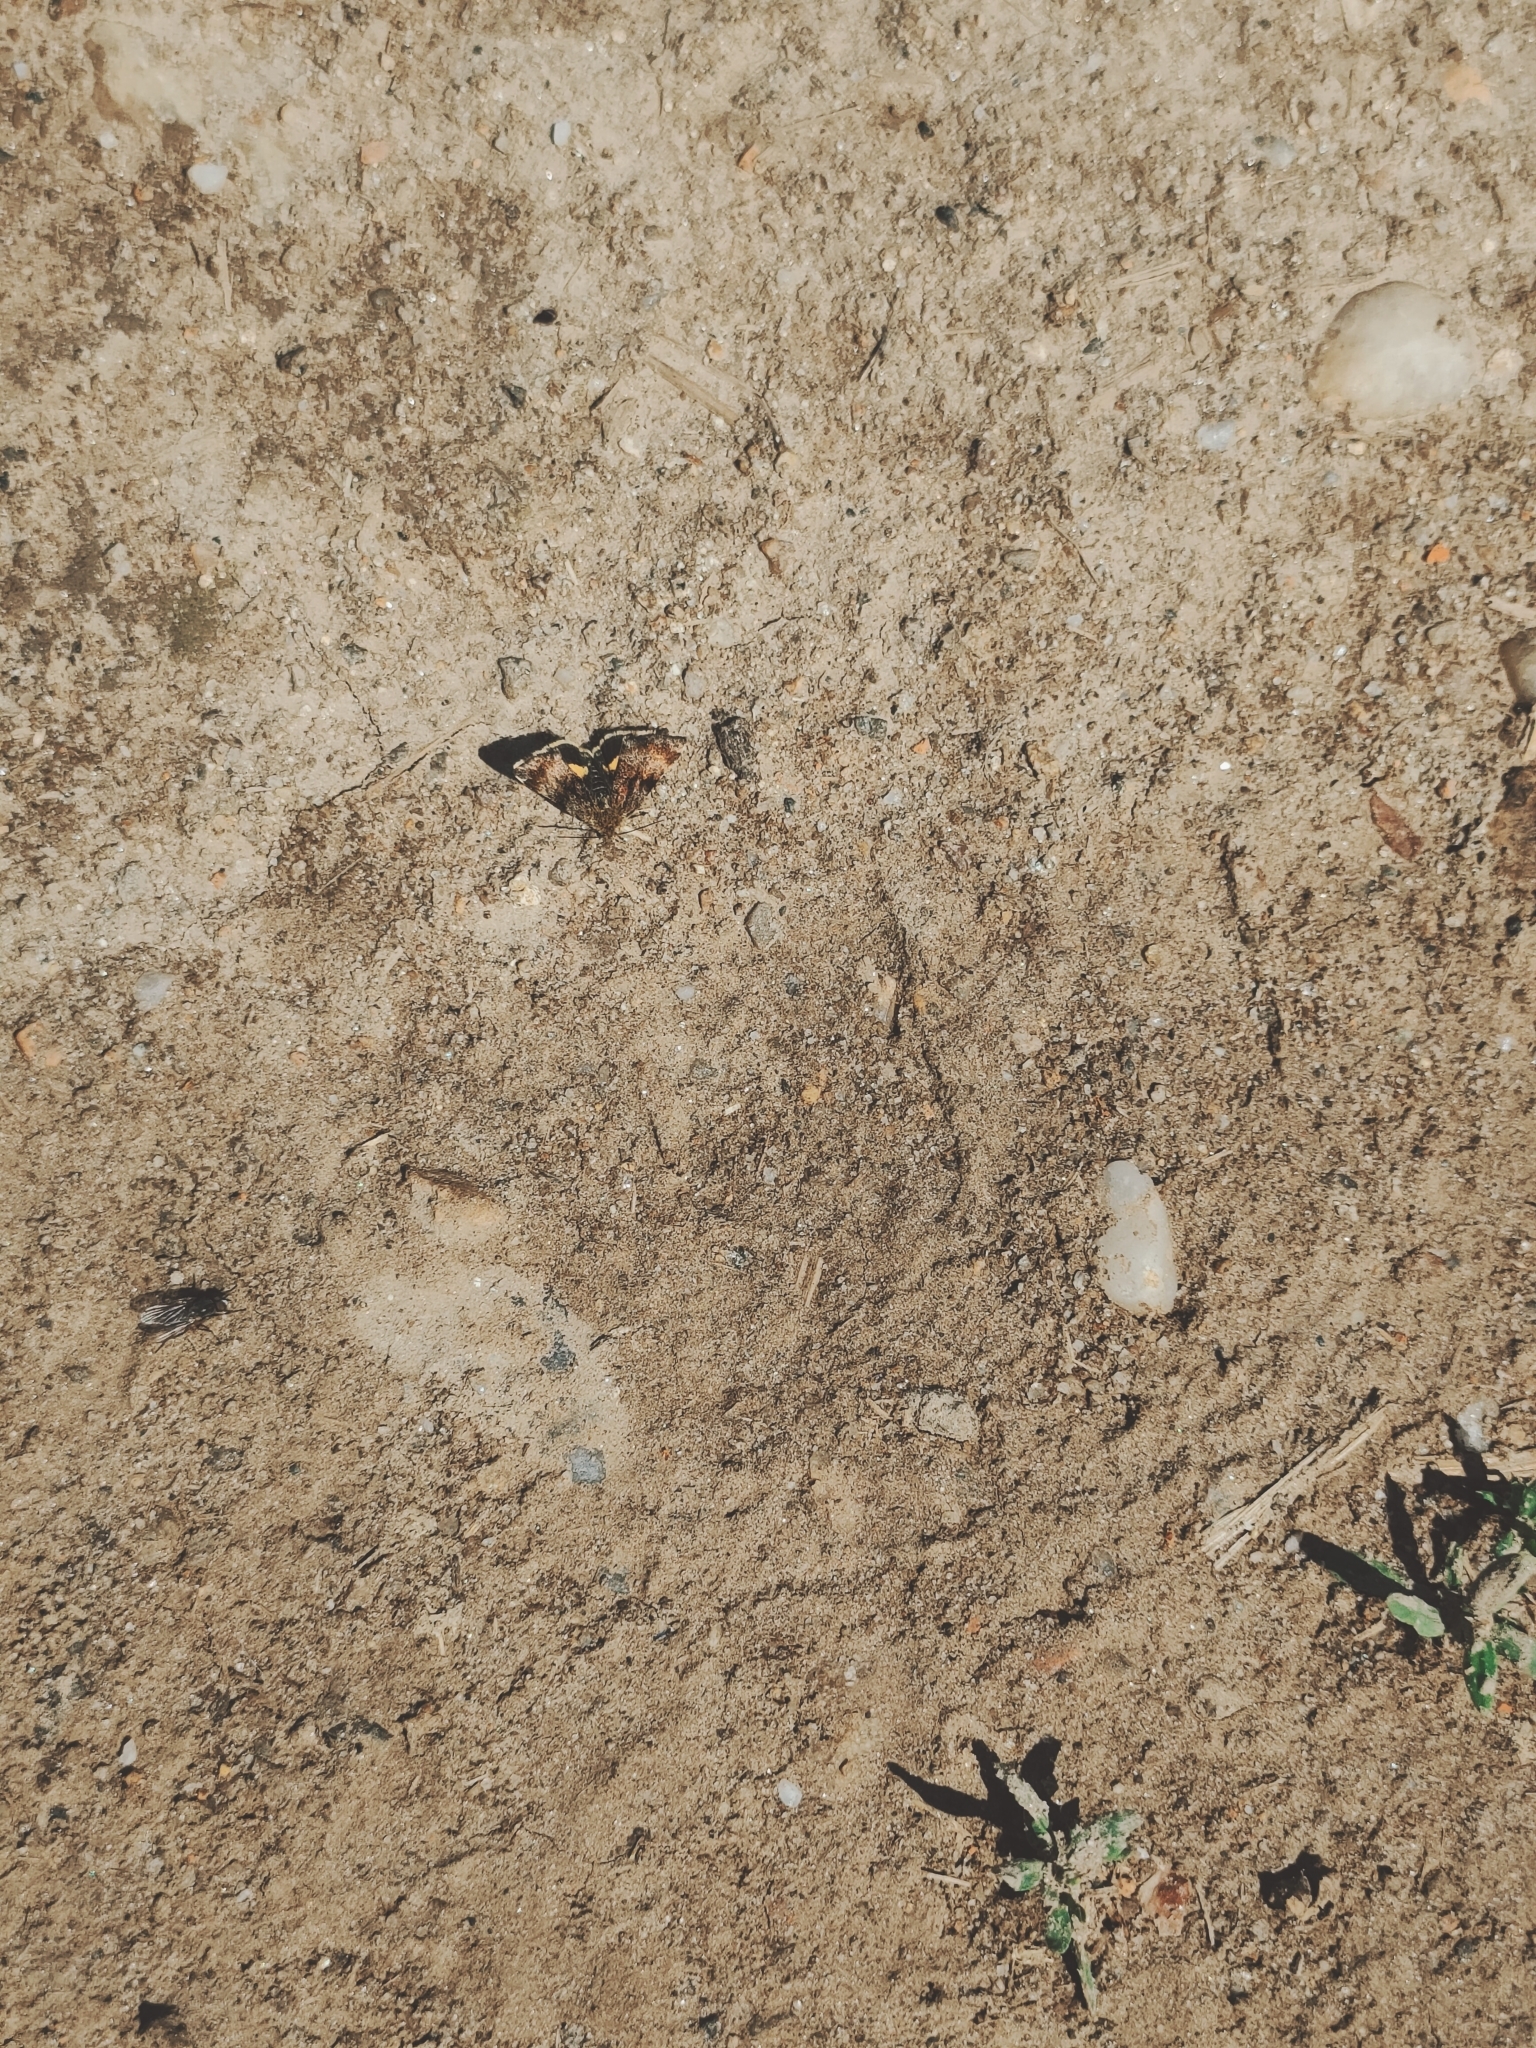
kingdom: Animalia
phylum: Arthropoda
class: Insecta
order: Lepidoptera
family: Noctuidae
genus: Panemeria
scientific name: Panemeria tenebrata
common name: Small yellow underwing
